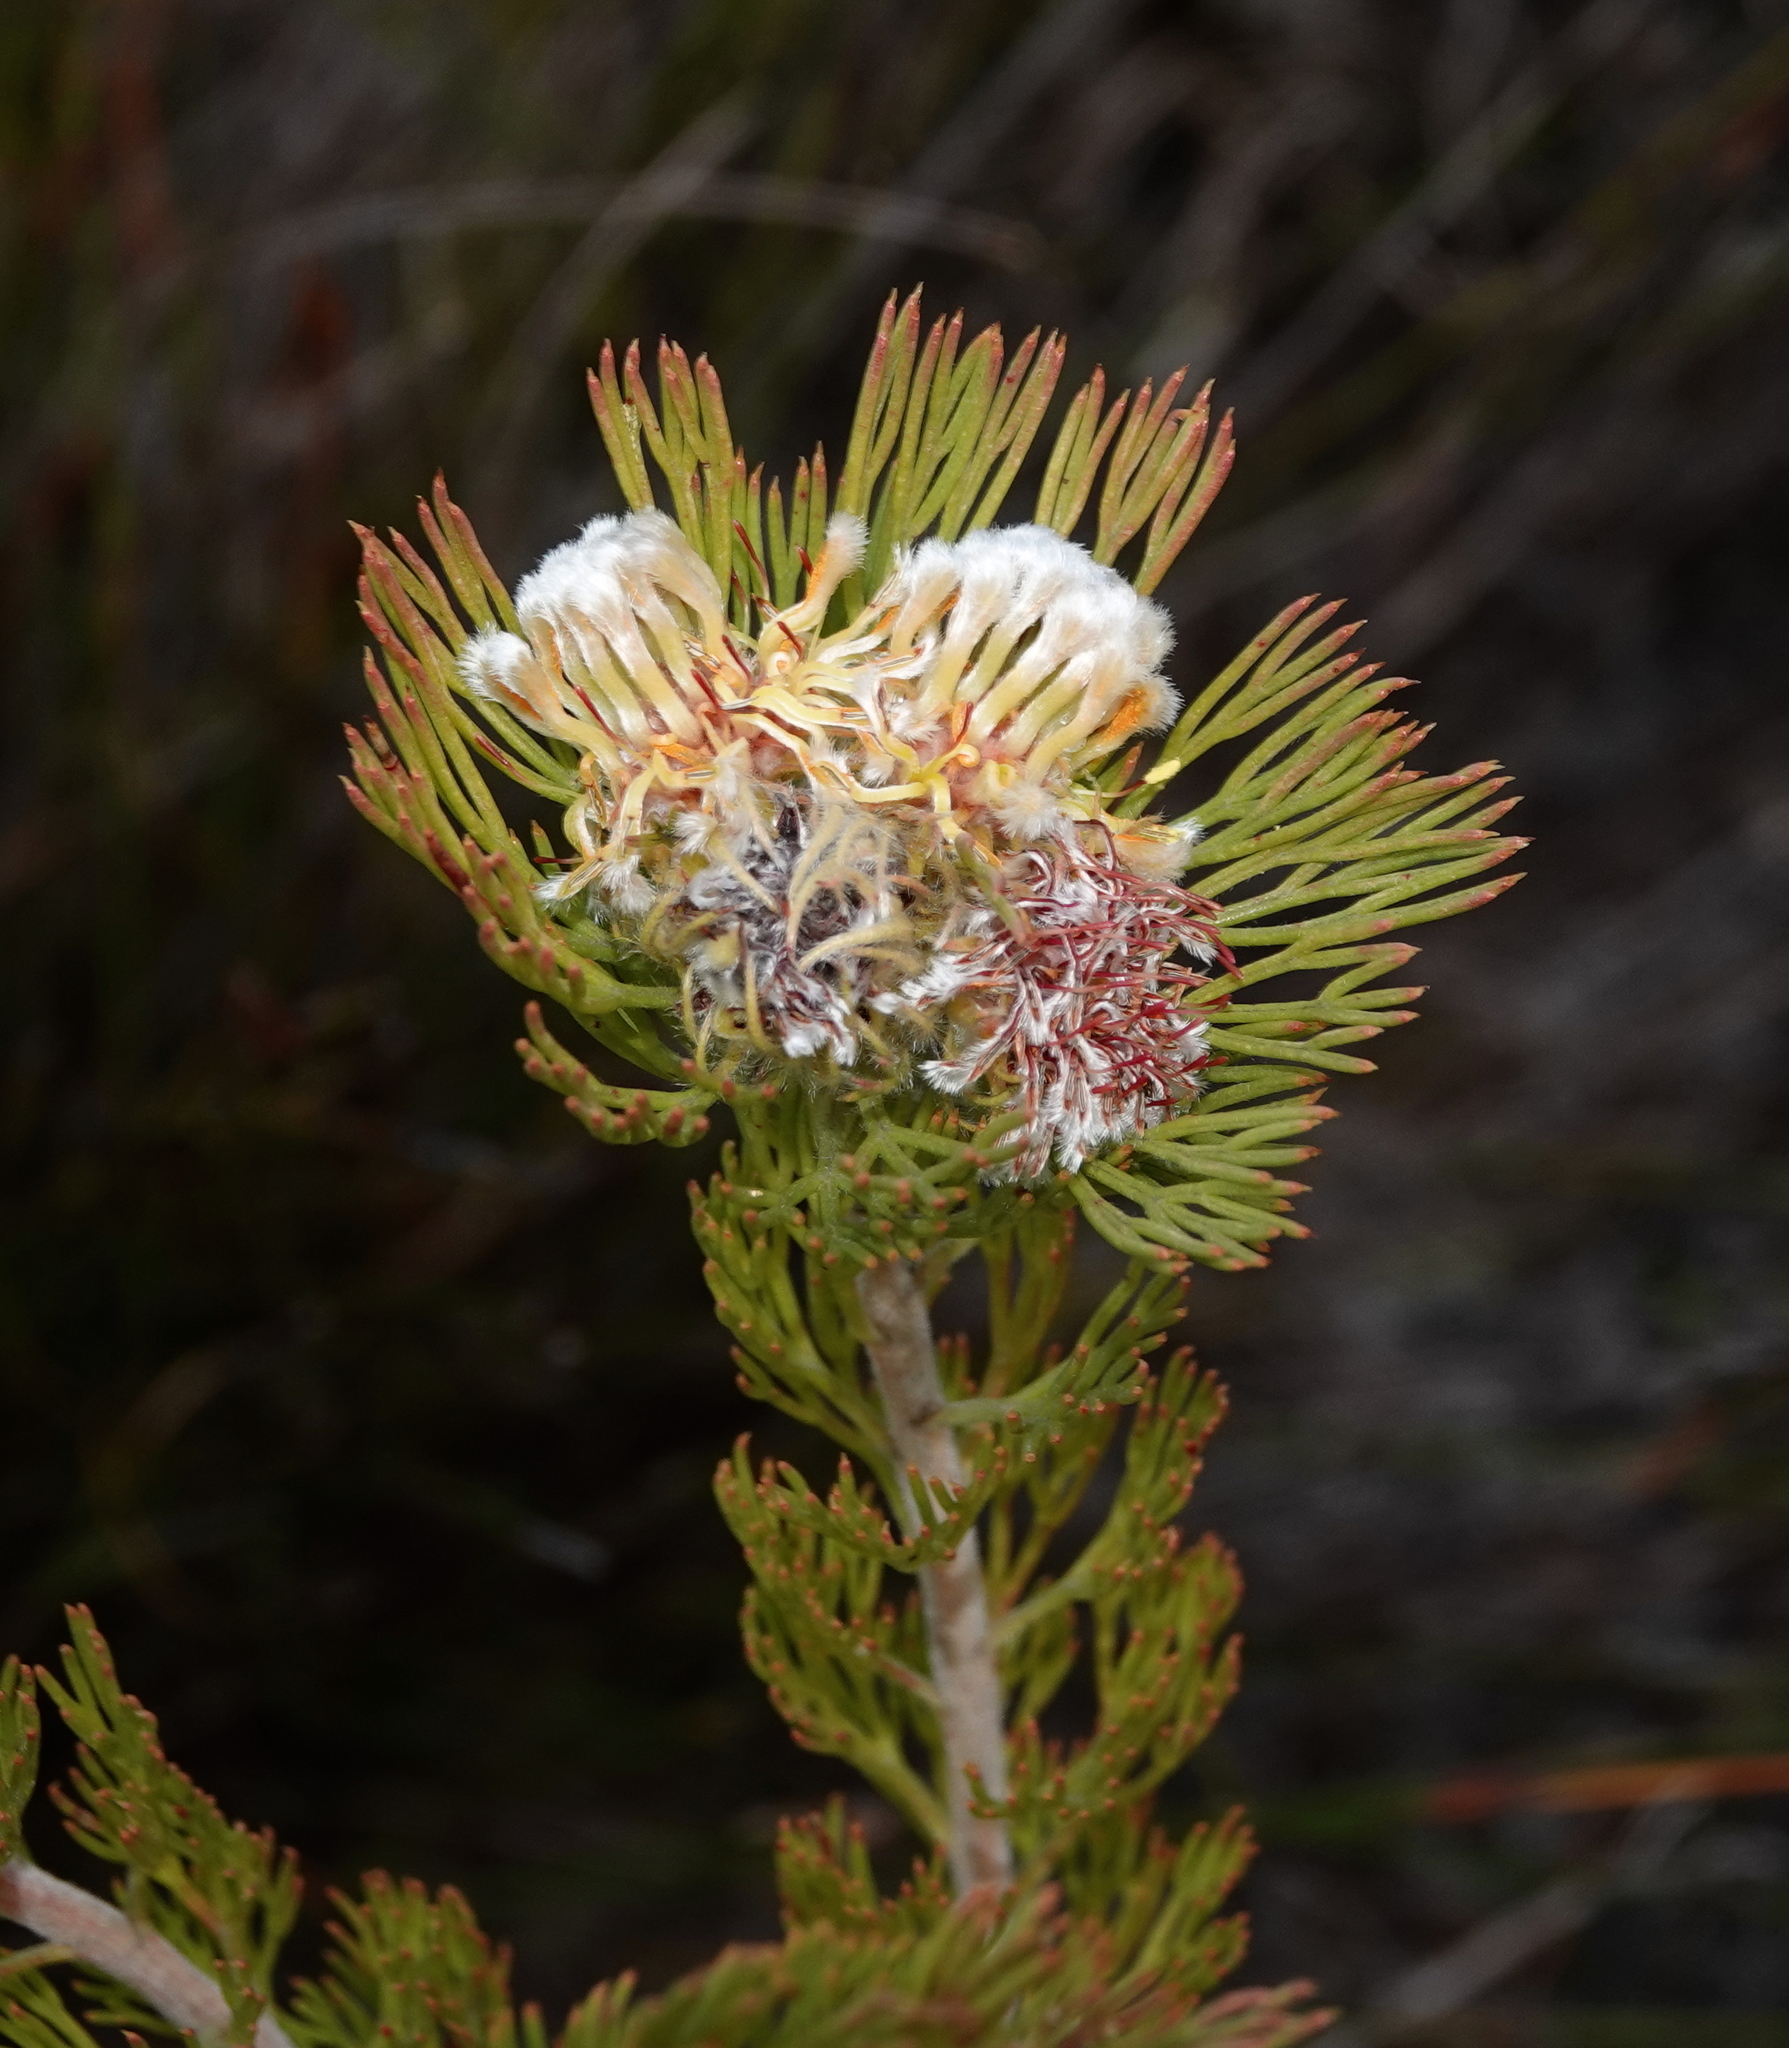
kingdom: Plantae
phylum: Tracheophyta
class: Magnoliopsida
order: Proteales
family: Proteaceae
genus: Serruria
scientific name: Serruria villosa
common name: Golden spiderhead
